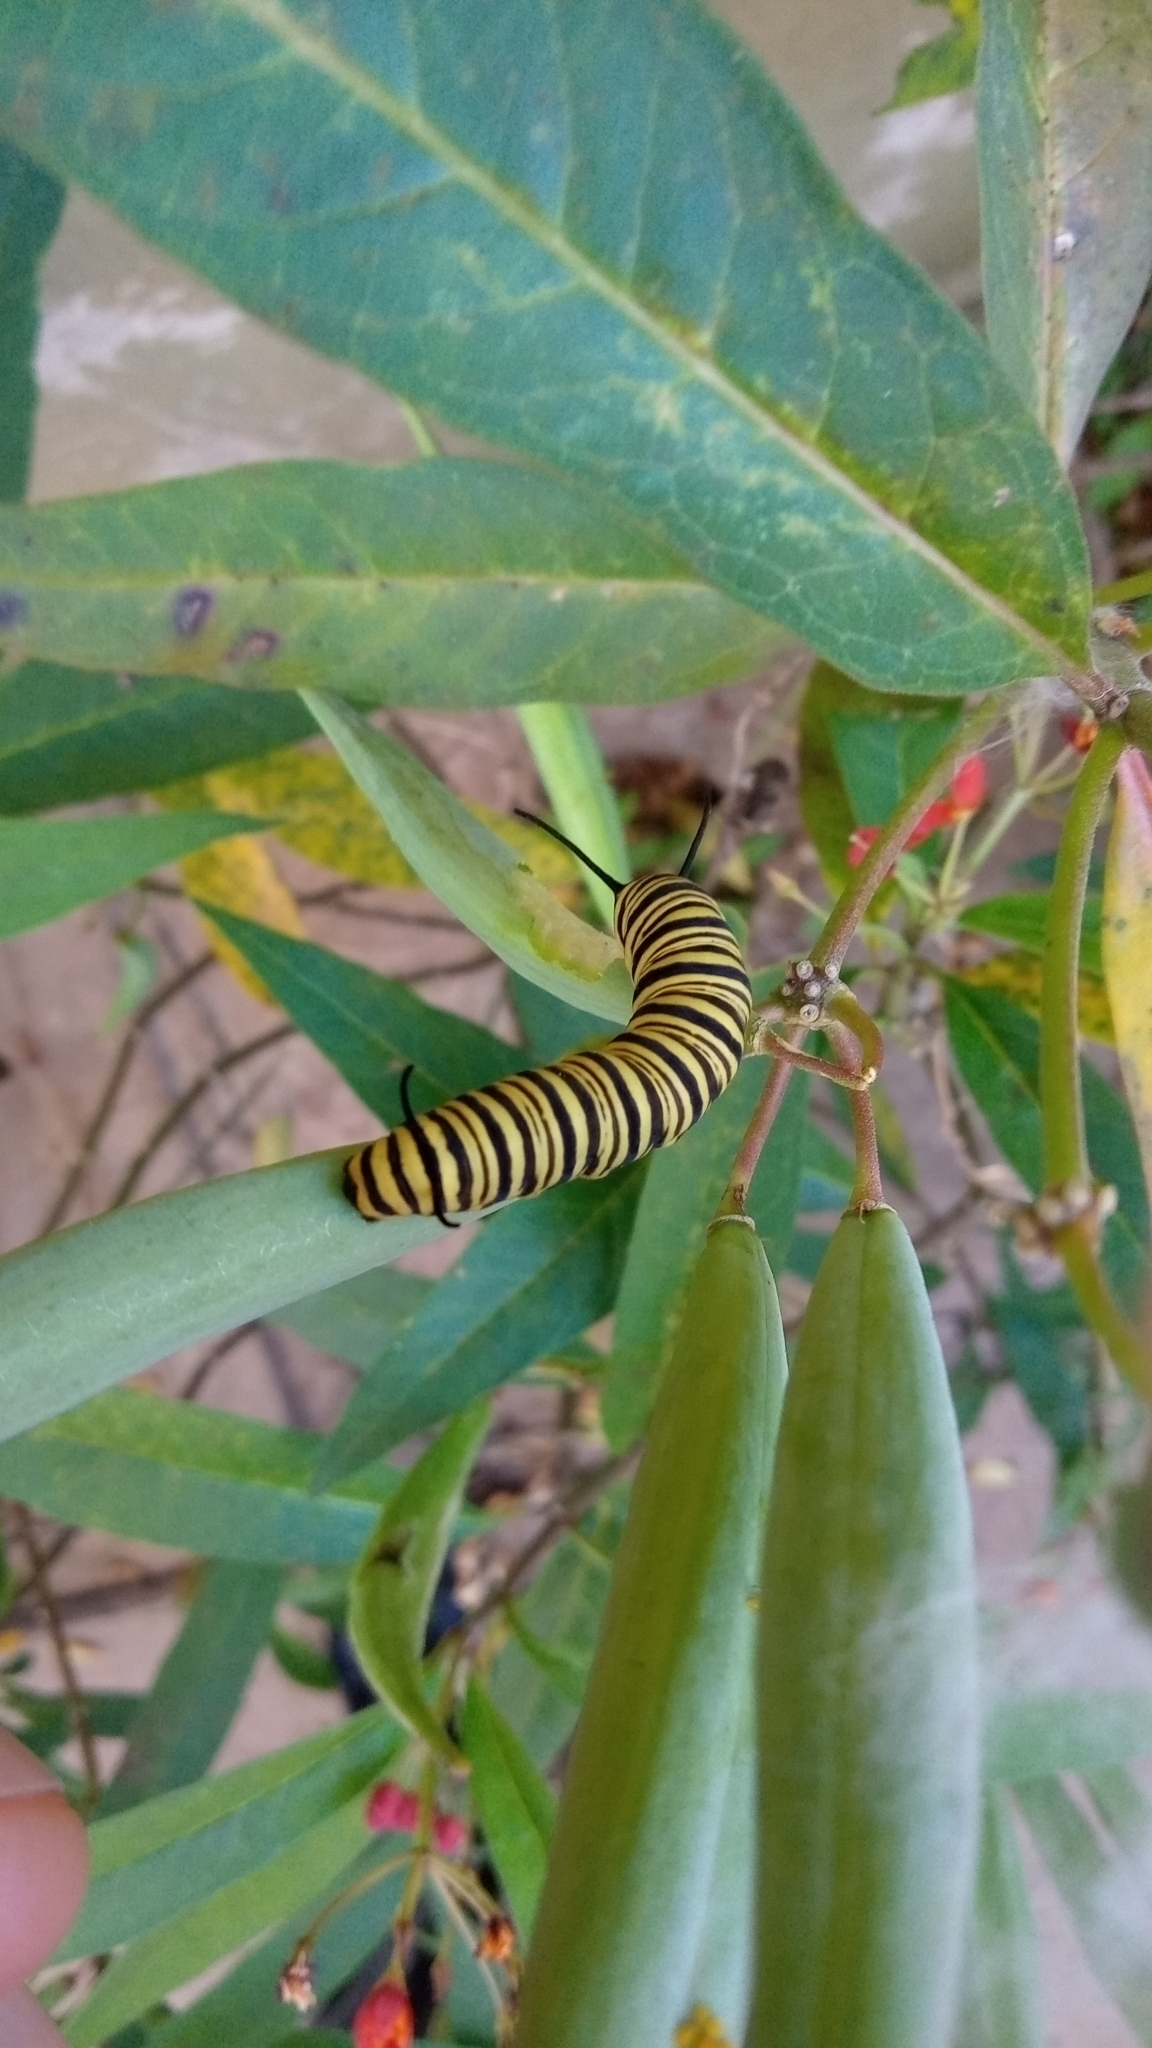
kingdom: Animalia
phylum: Arthropoda
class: Insecta
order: Lepidoptera
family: Nymphalidae
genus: Danaus
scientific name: Danaus erippus
